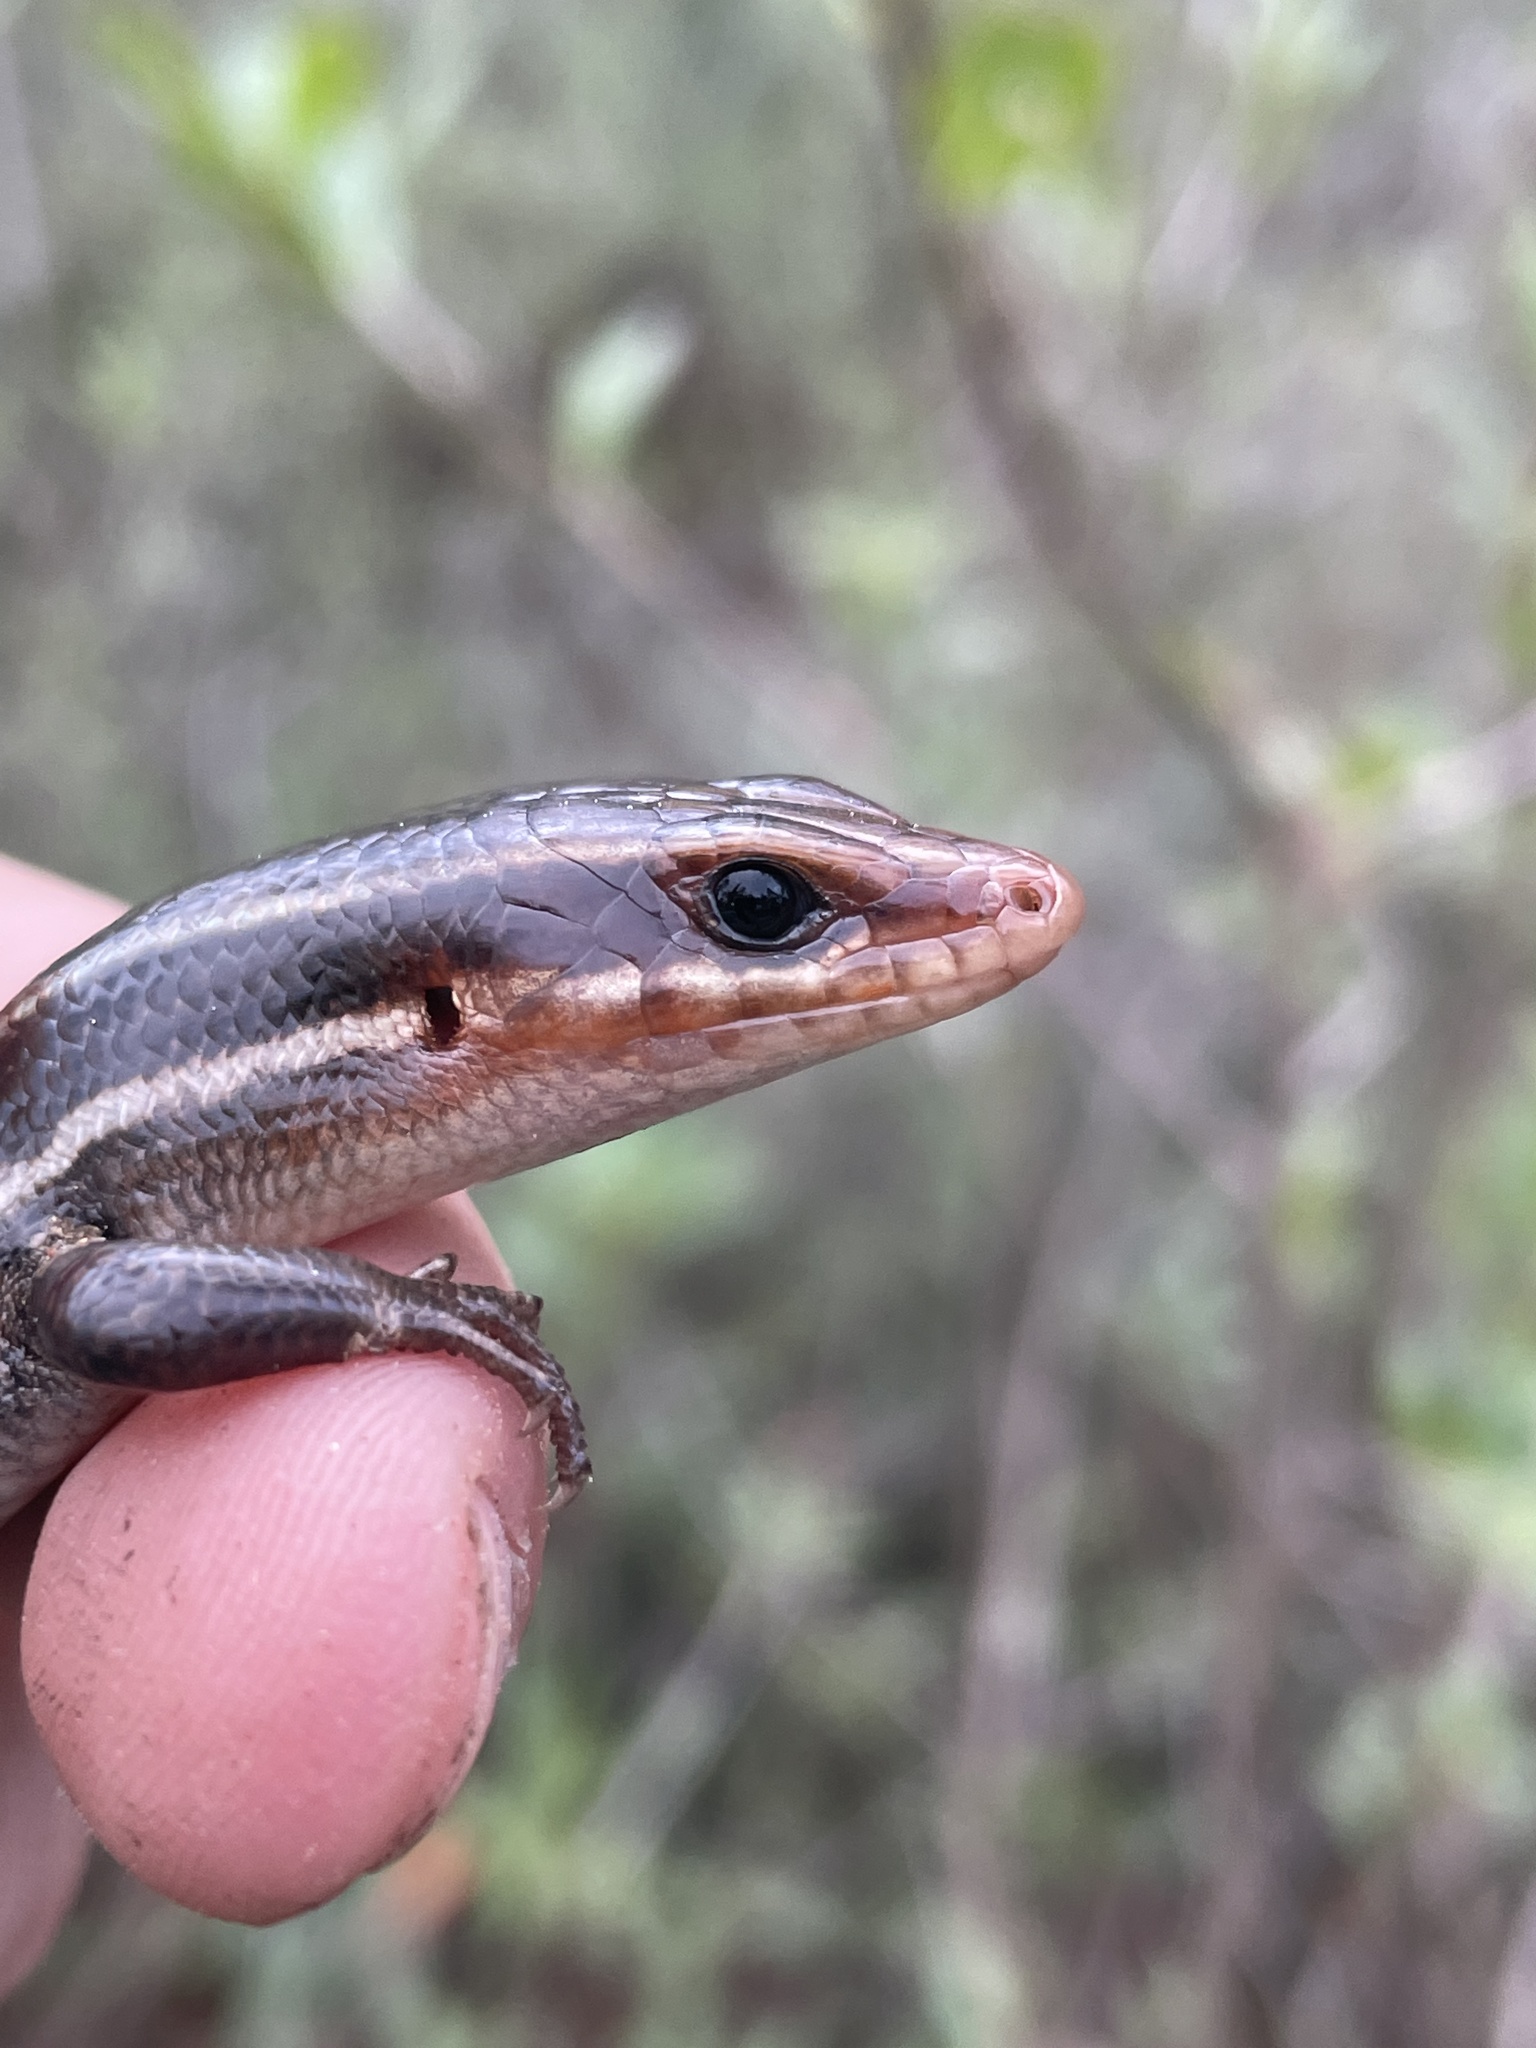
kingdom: Animalia
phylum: Chordata
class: Squamata
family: Scincidae
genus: Plestiodon
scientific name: Plestiodon inexpectatus
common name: Southeastern five-lined skink
